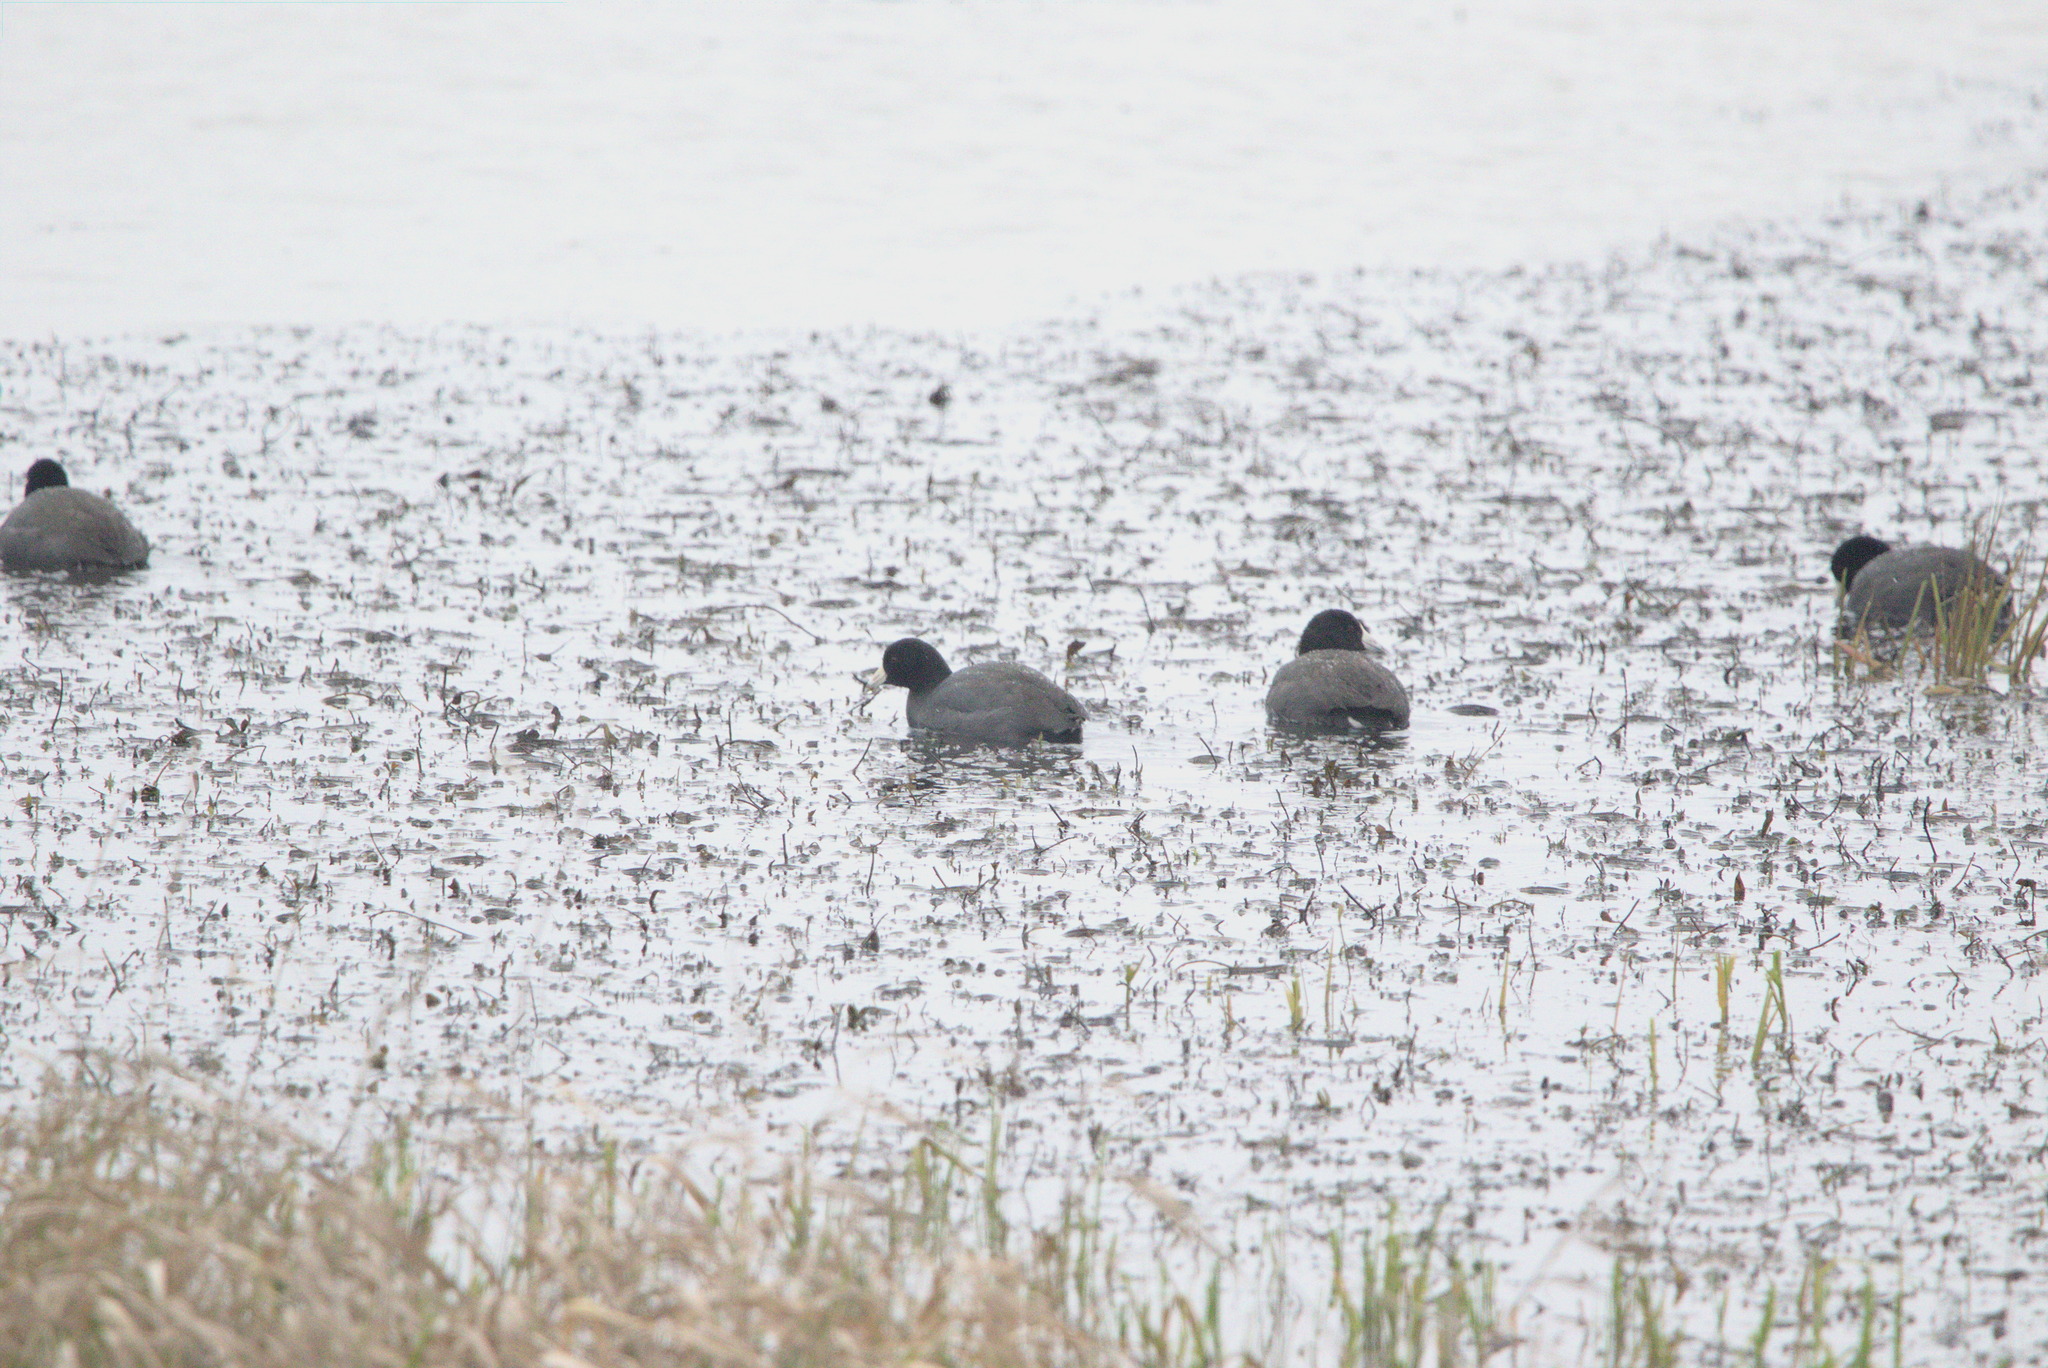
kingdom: Animalia
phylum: Chordata
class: Aves
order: Gruiformes
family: Rallidae
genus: Fulica
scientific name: Fulica americana
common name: American coot
